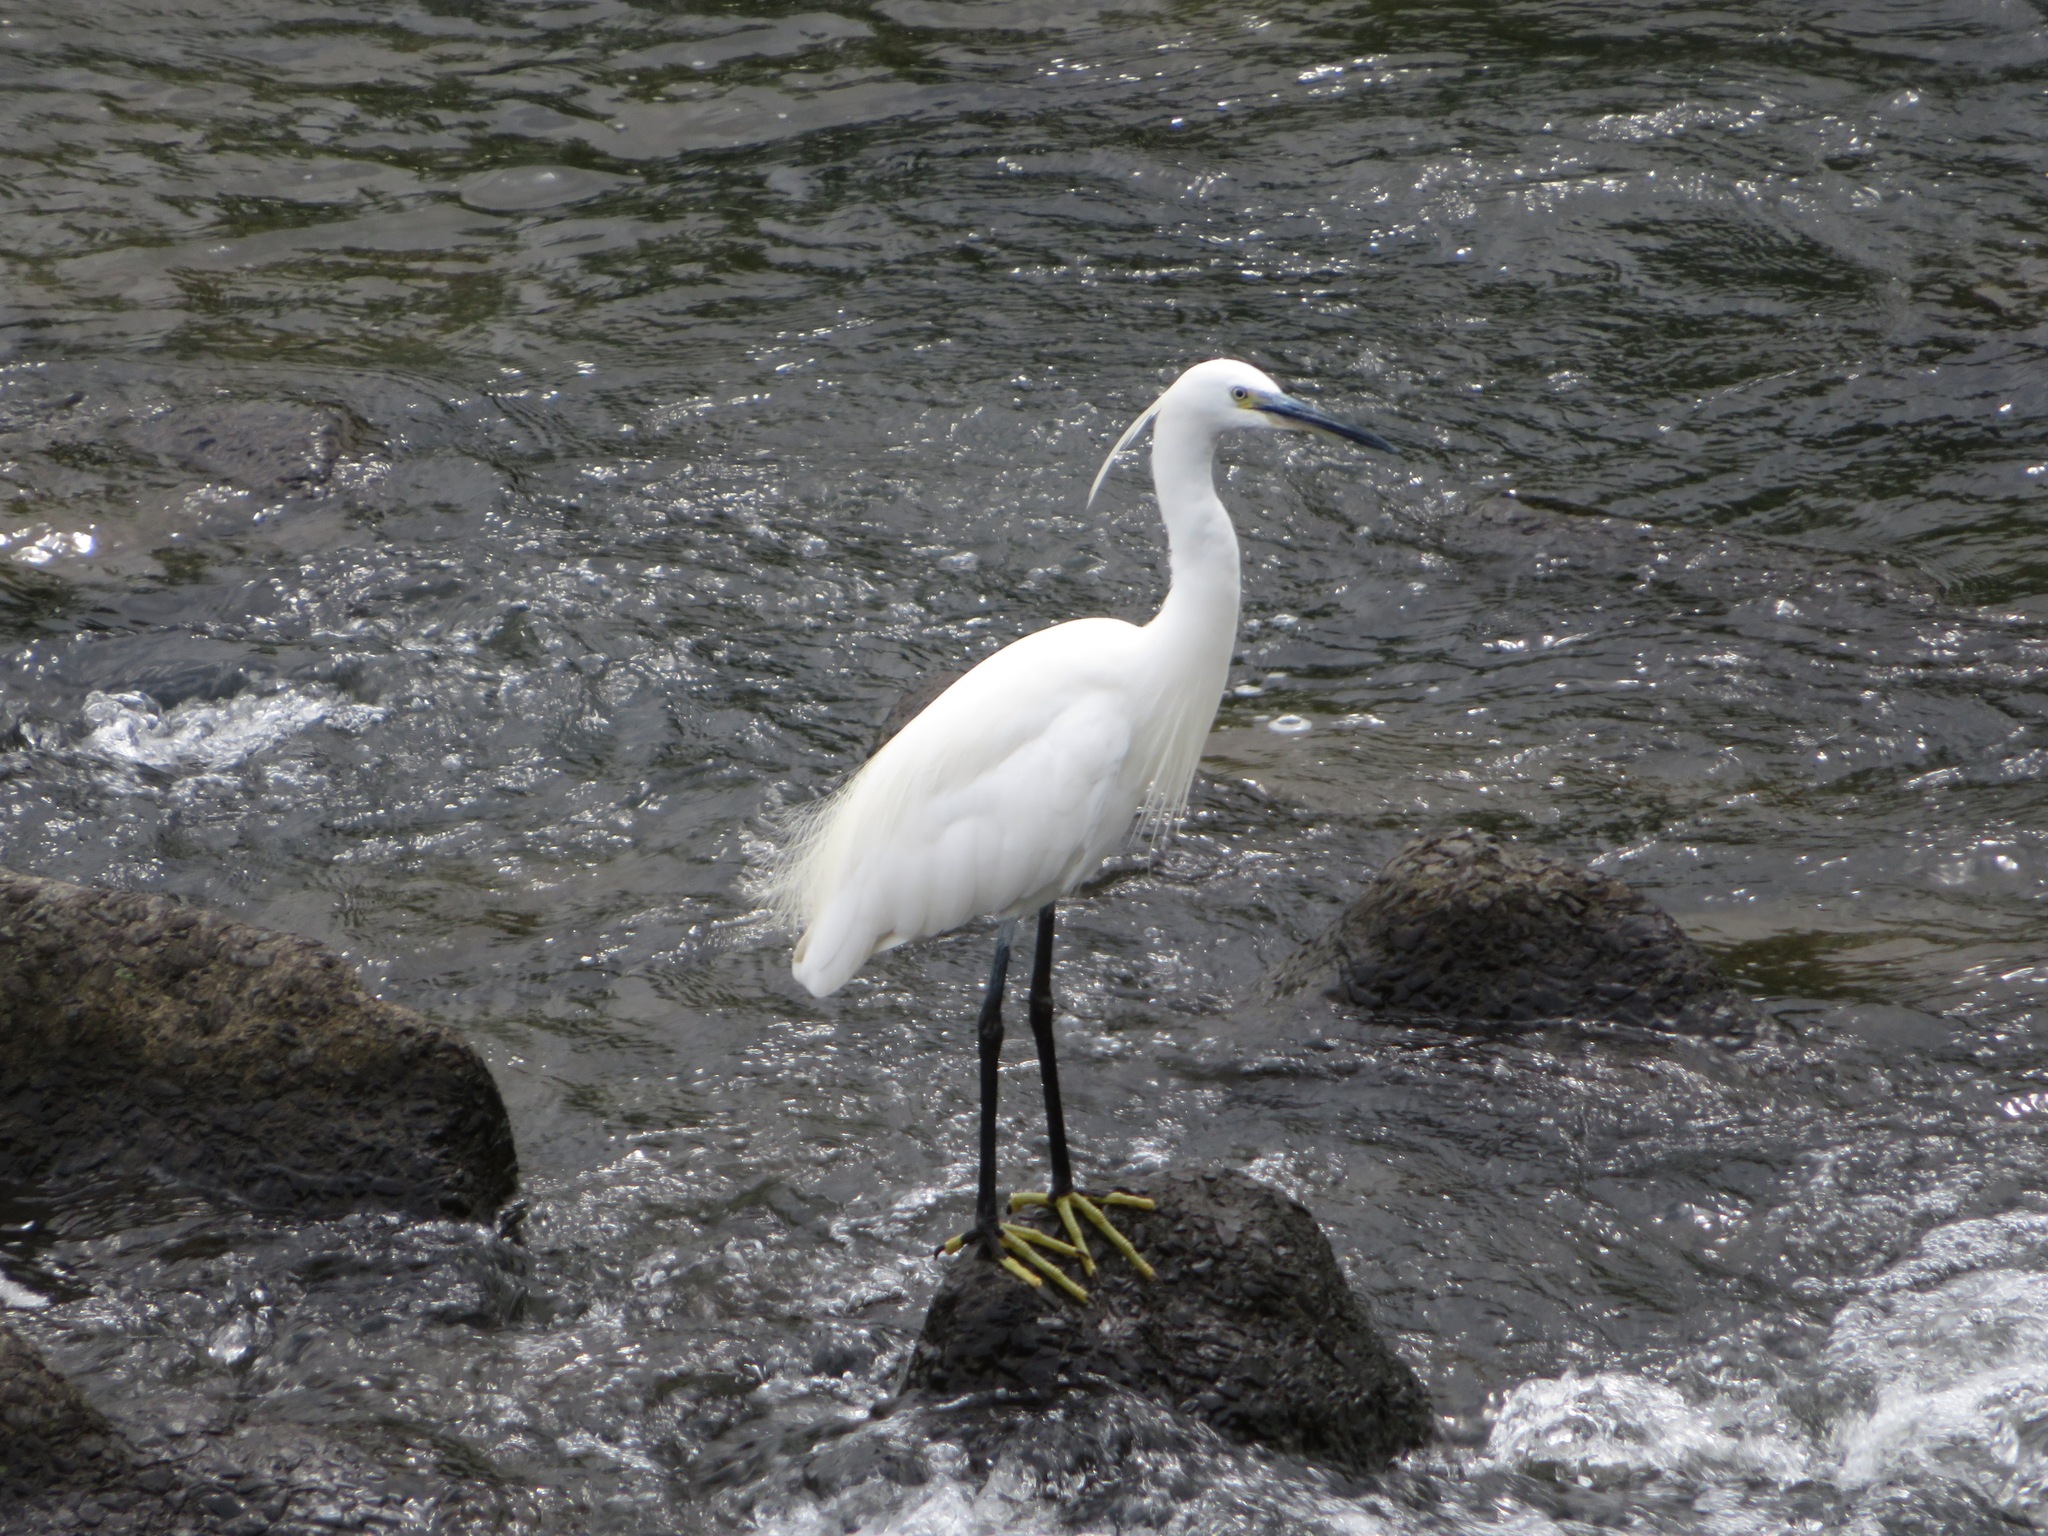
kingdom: Animalia
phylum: Chordata
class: Aves
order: Pelecaniformes
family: Ardeidae
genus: Egretta
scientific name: Egretta garzetta
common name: Little egret
